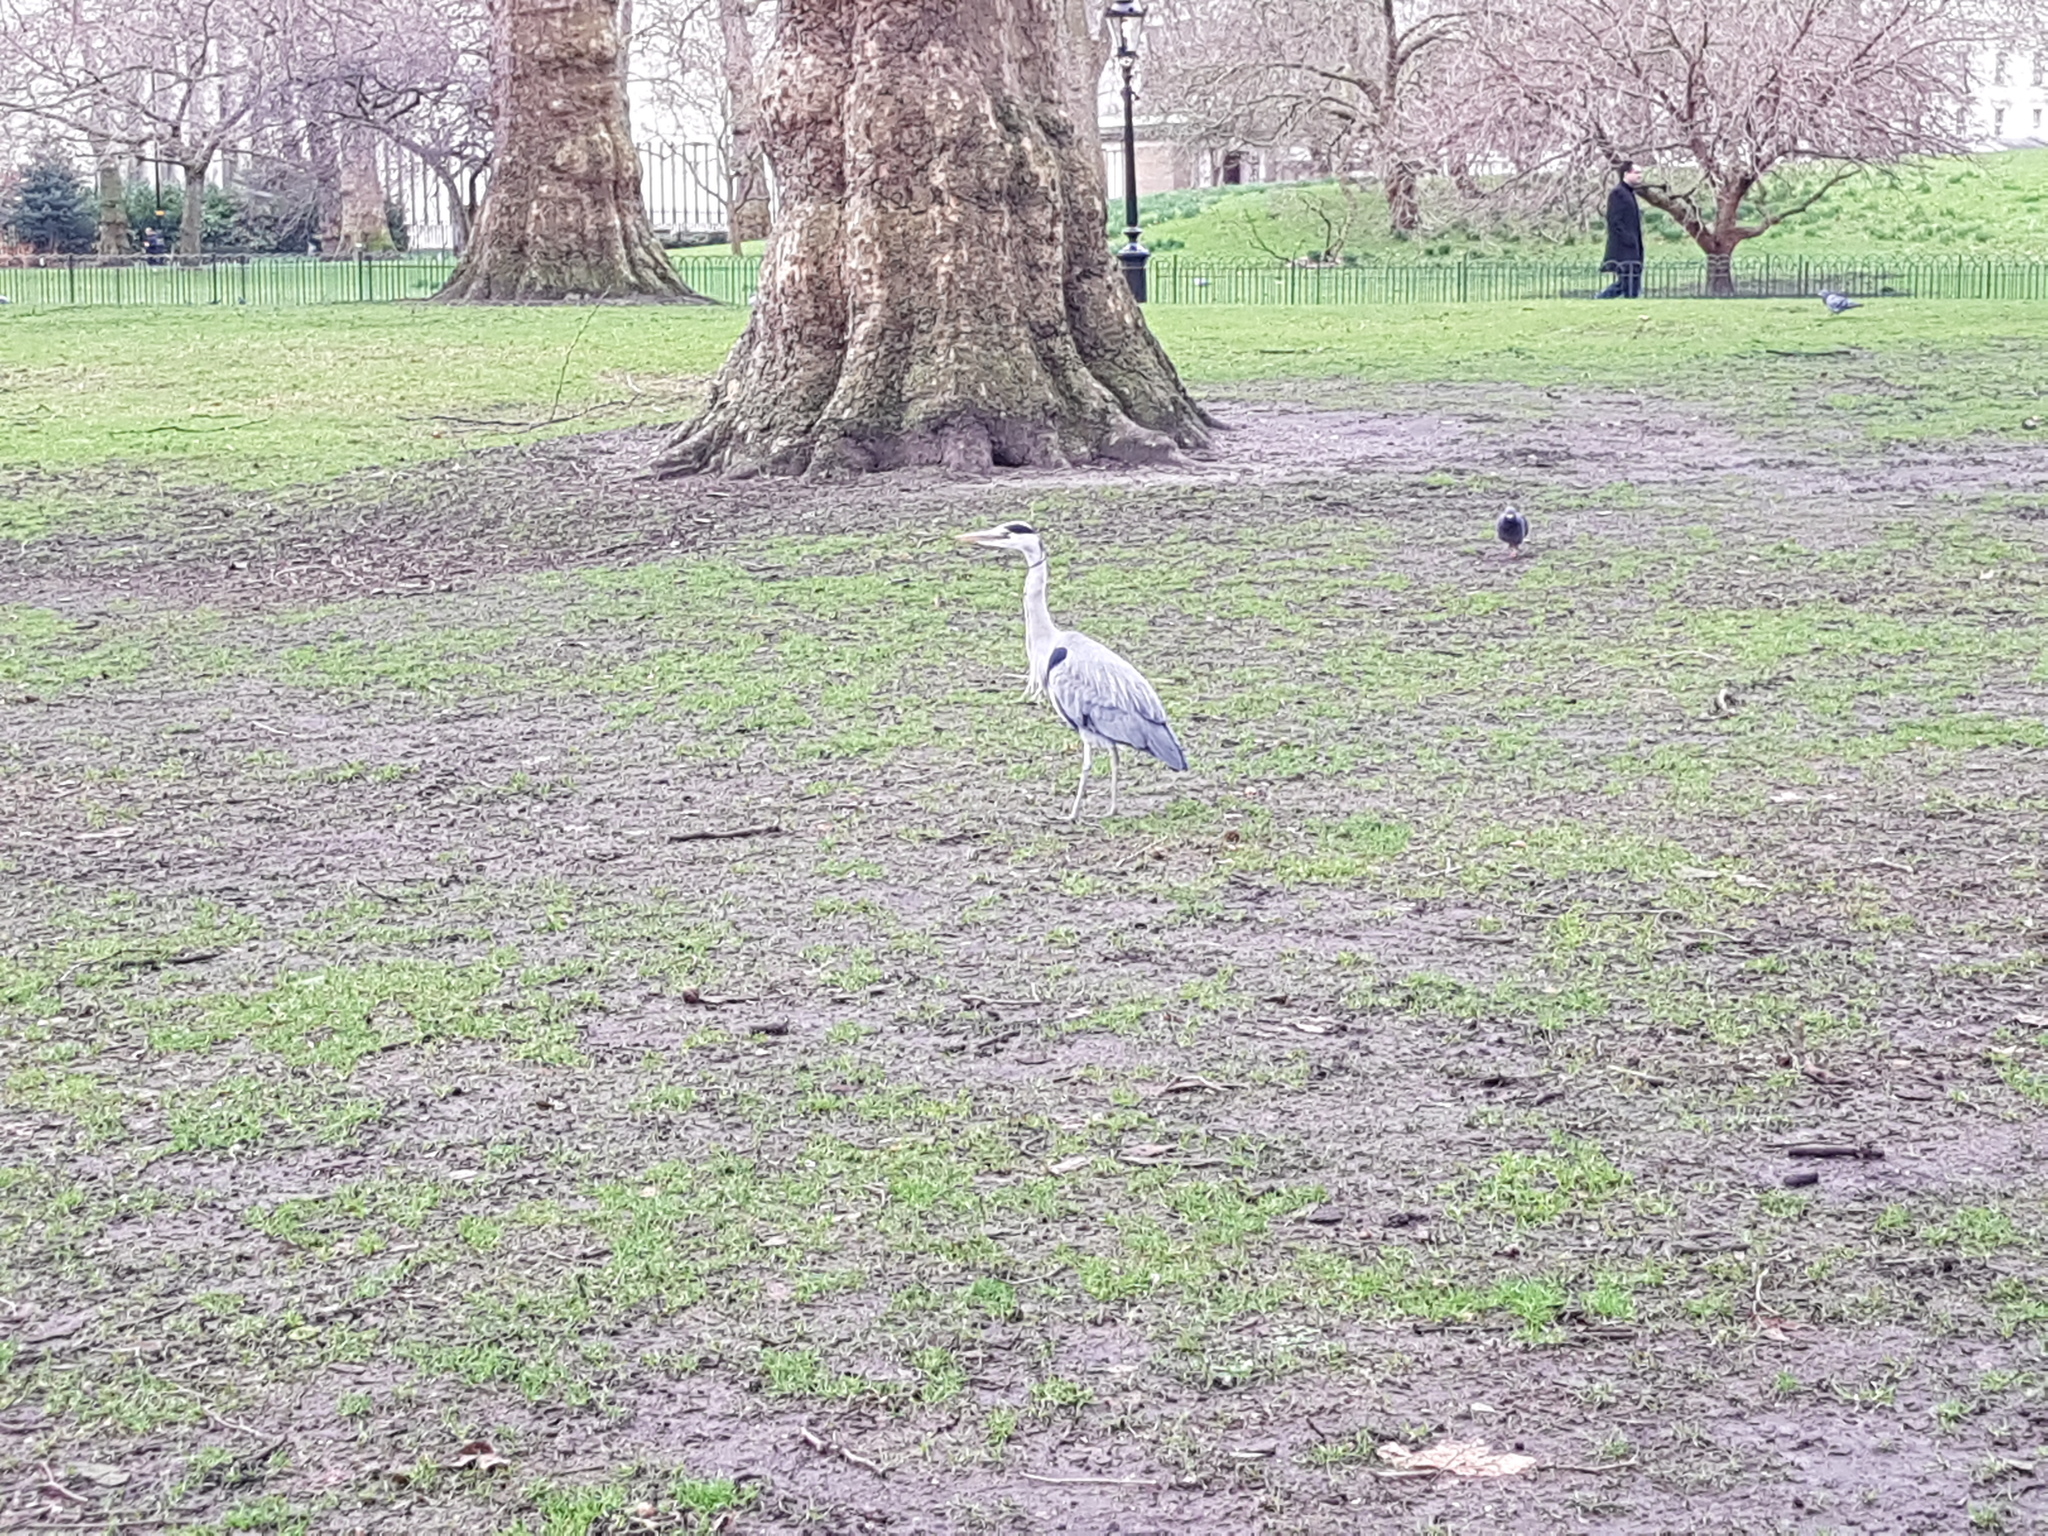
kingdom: Animalia
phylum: Chordata
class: Aves
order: Pelecaniformes
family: Ardeidae
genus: Ardea
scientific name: Ardea cinerea
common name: Grey heron
